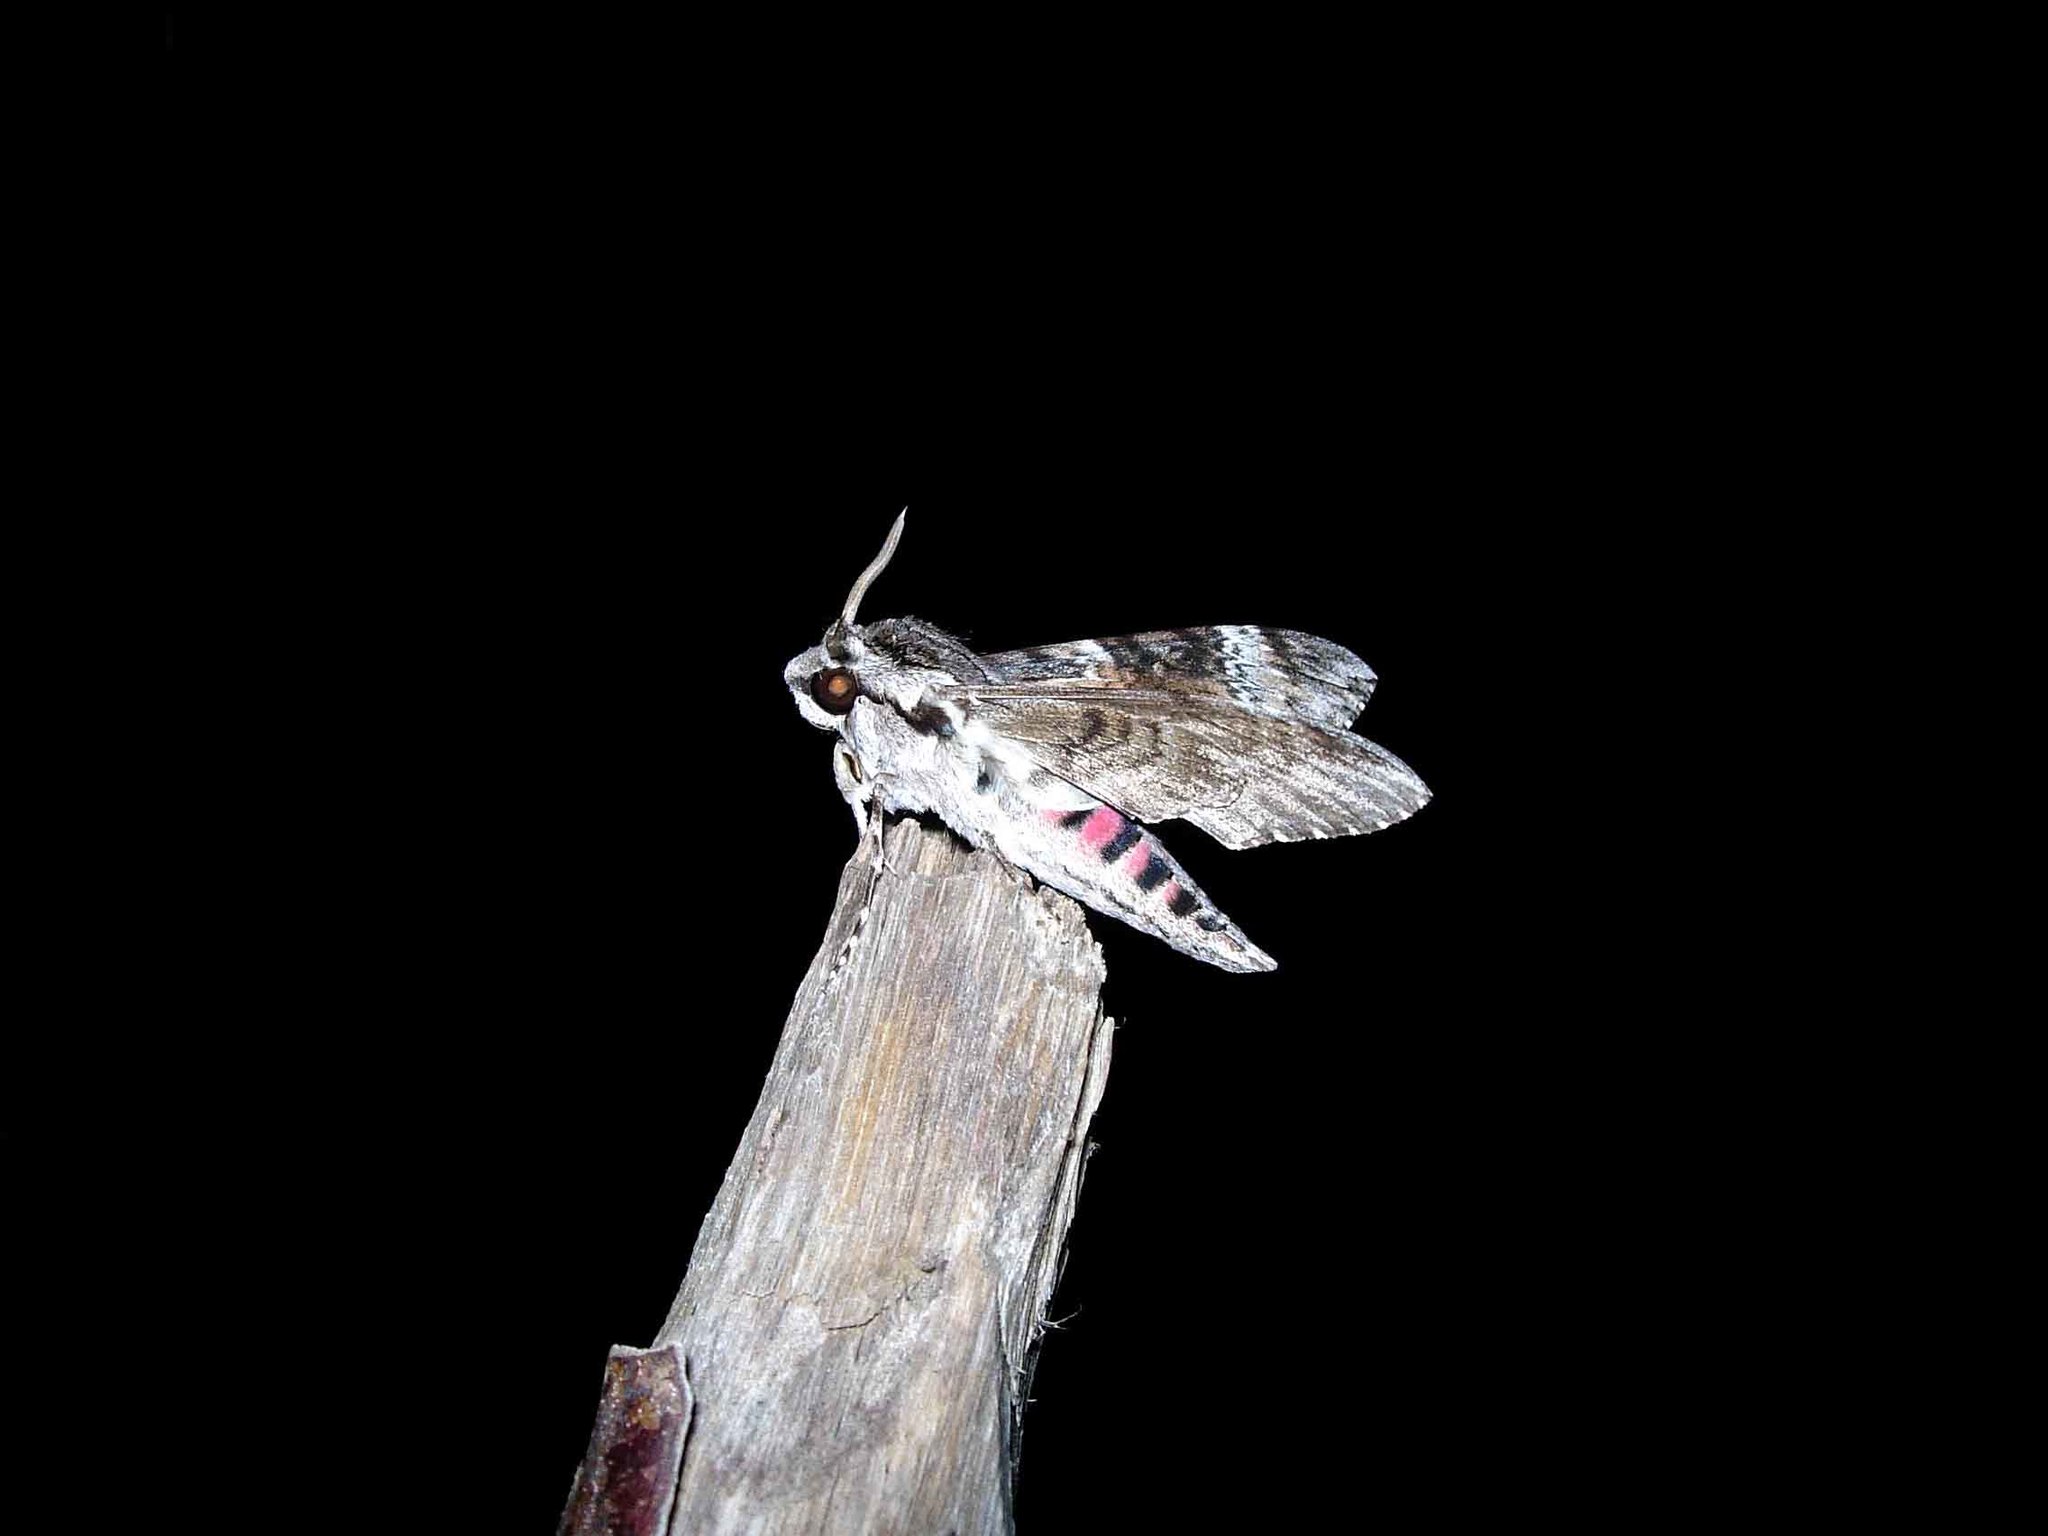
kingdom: Animalia
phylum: Arthropoda
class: Insecta
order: Lepidoptera
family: Sphingidae
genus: Agrius
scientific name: Agrius convolvuli
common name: Convolvulus hawkmoth
